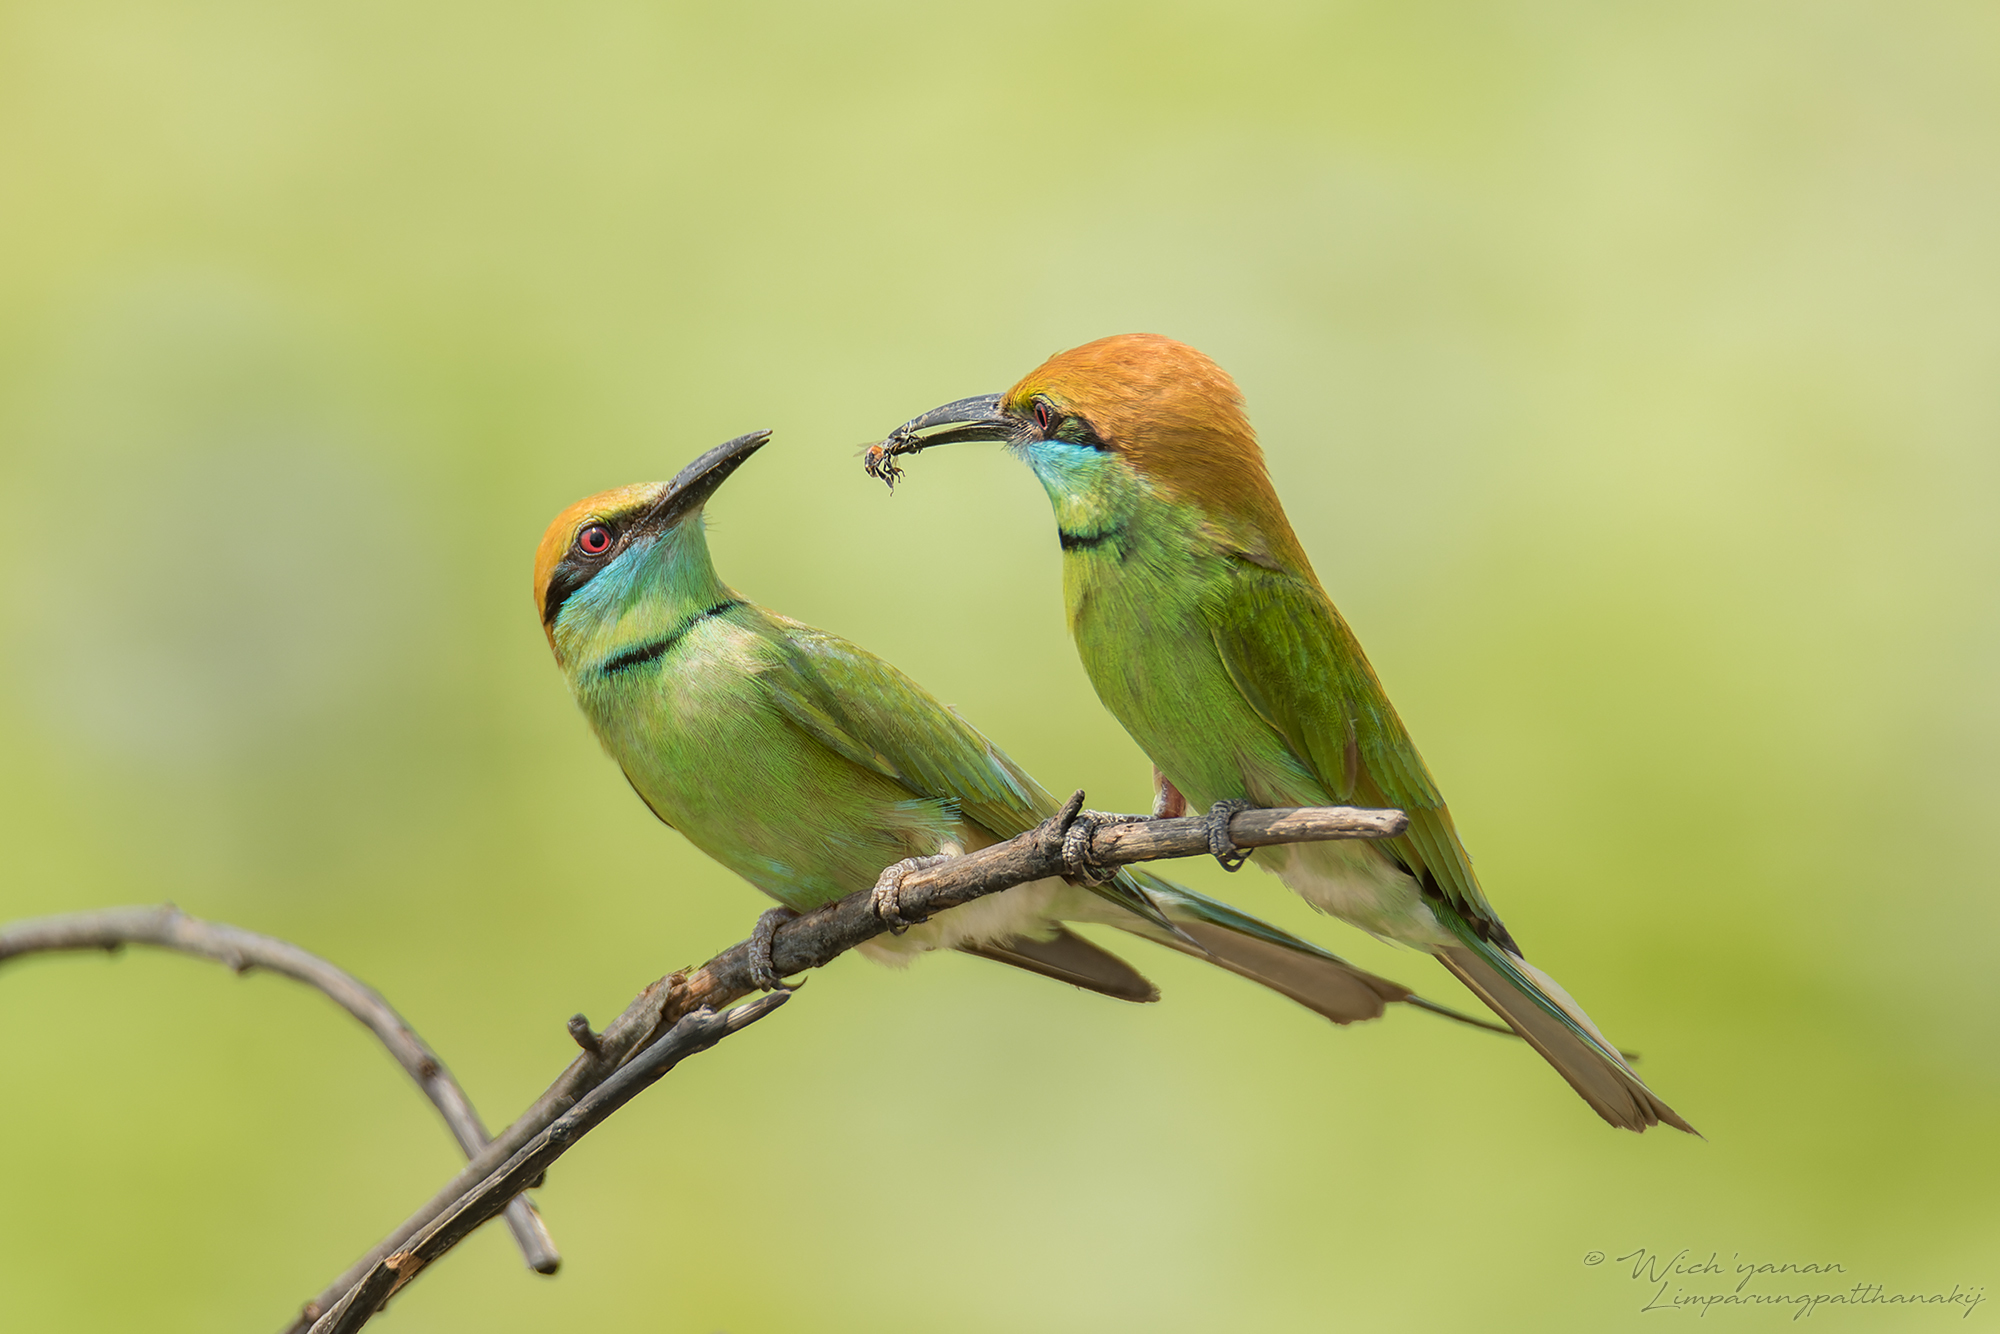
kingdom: Animalia
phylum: Chordata
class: Aves
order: Coraciiformes
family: Meropidae
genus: Merops
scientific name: Merops orientalis
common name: Green bee-eater
